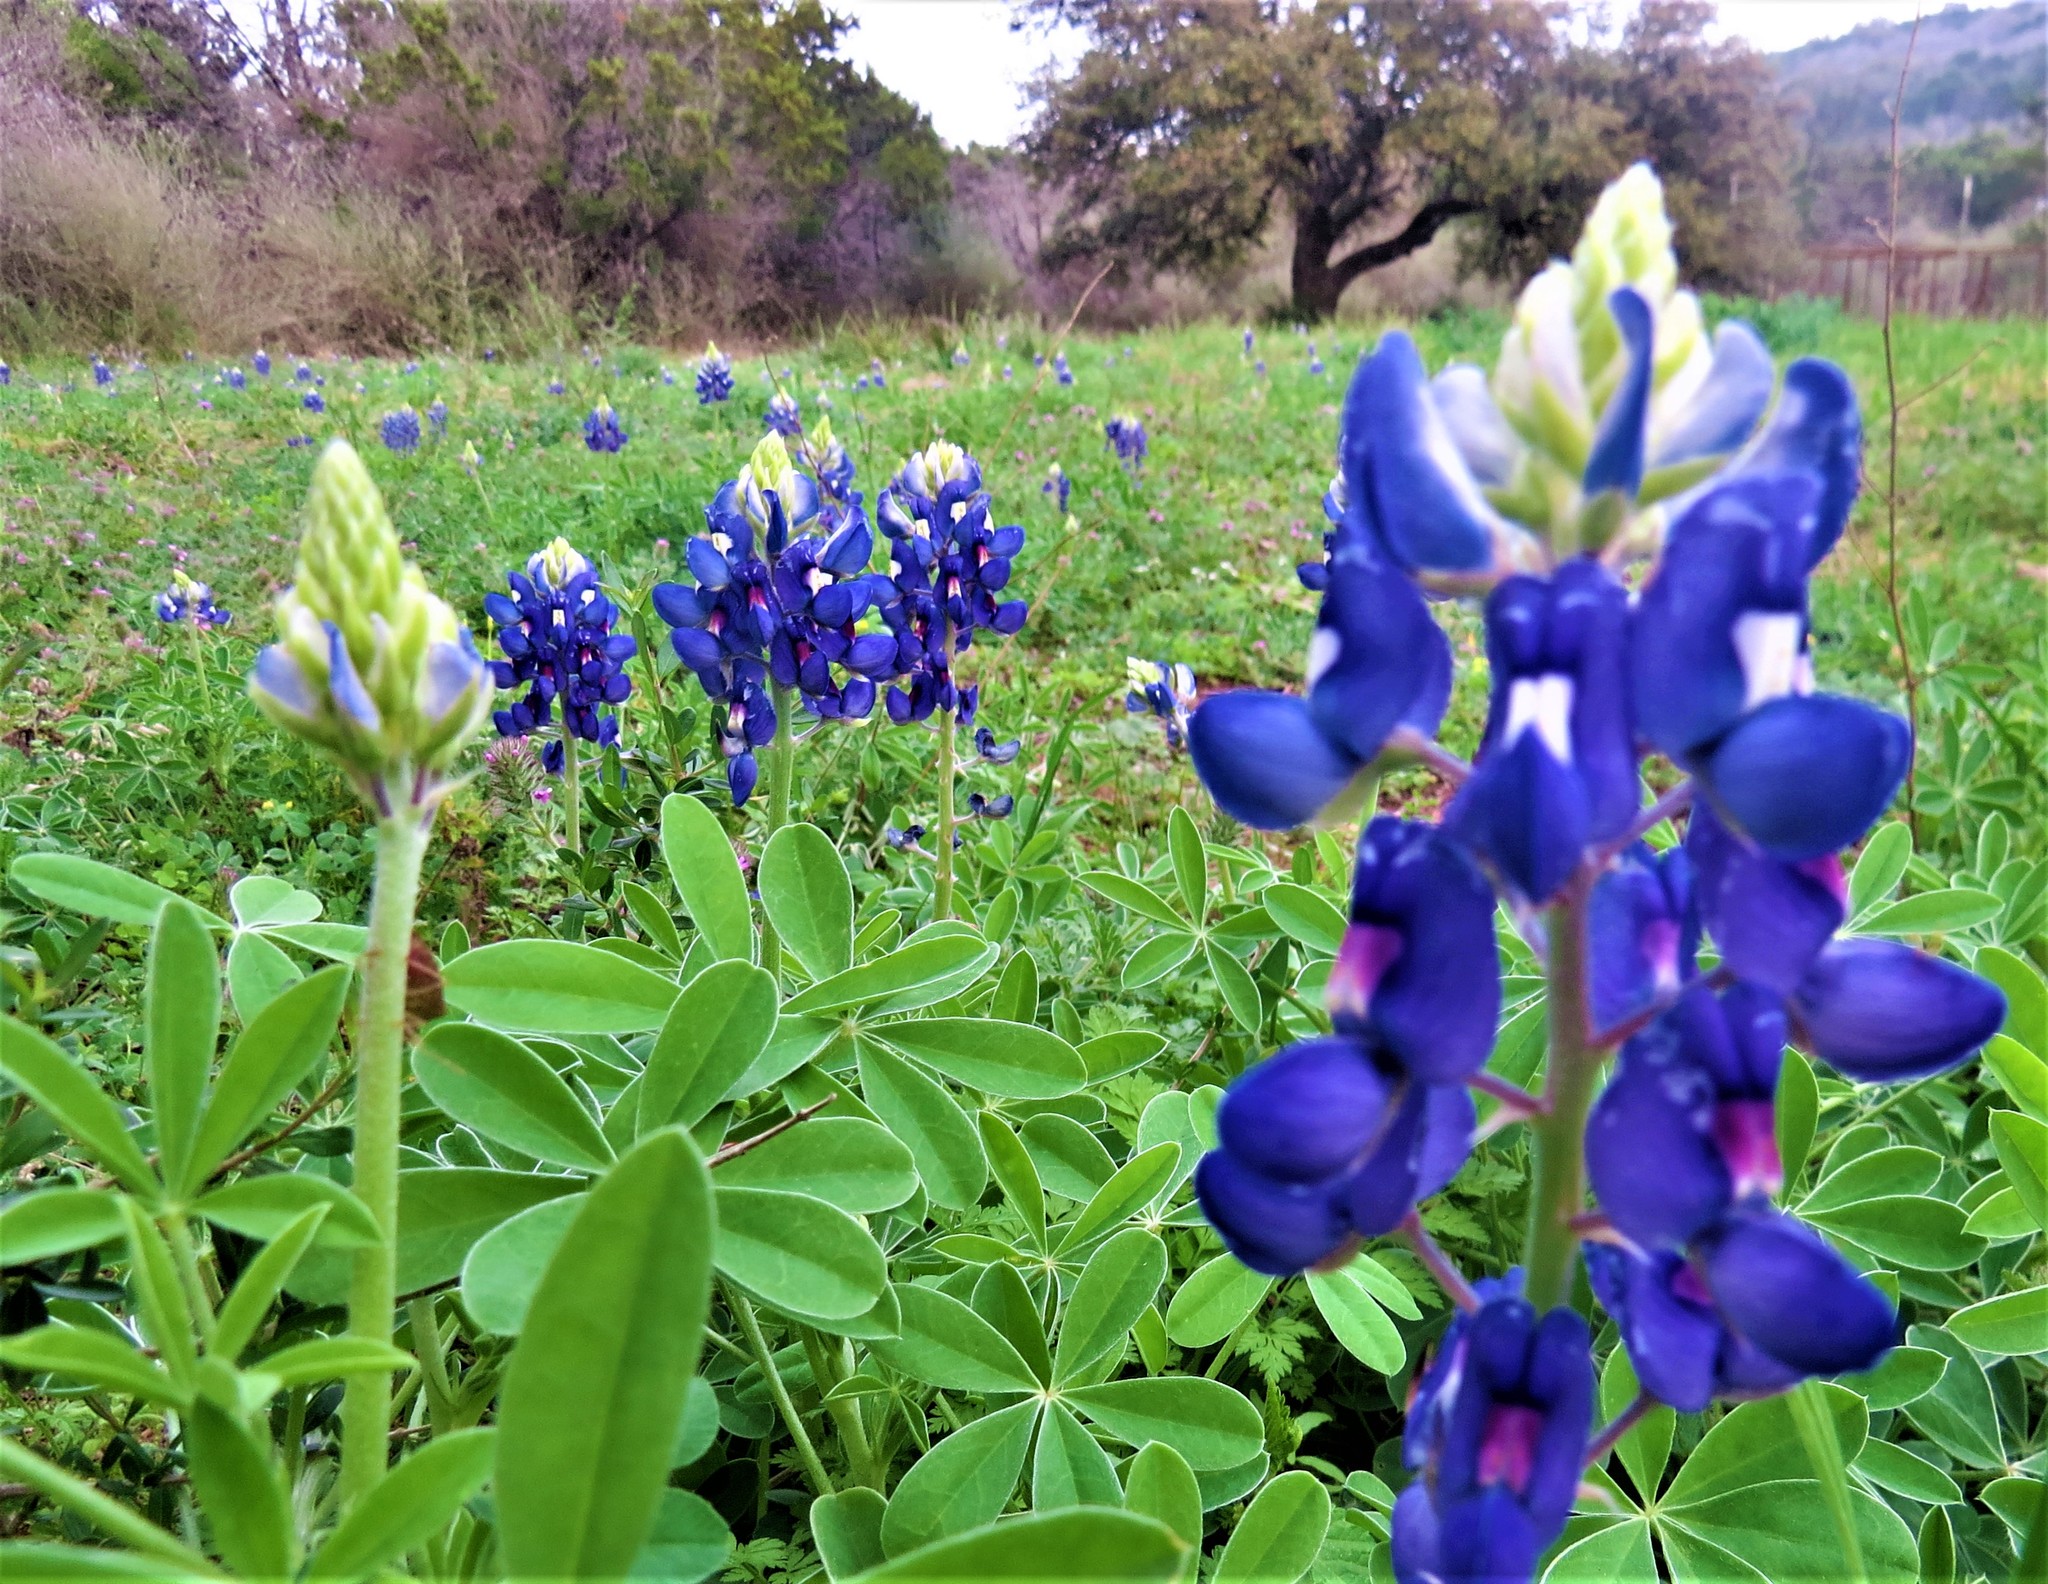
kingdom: Plantae
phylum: Tracheophyta
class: Magnoliopsida
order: Fabales
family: Fabaceae
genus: Lupinus
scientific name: Lupinus texensis
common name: Texas bluebonnet
